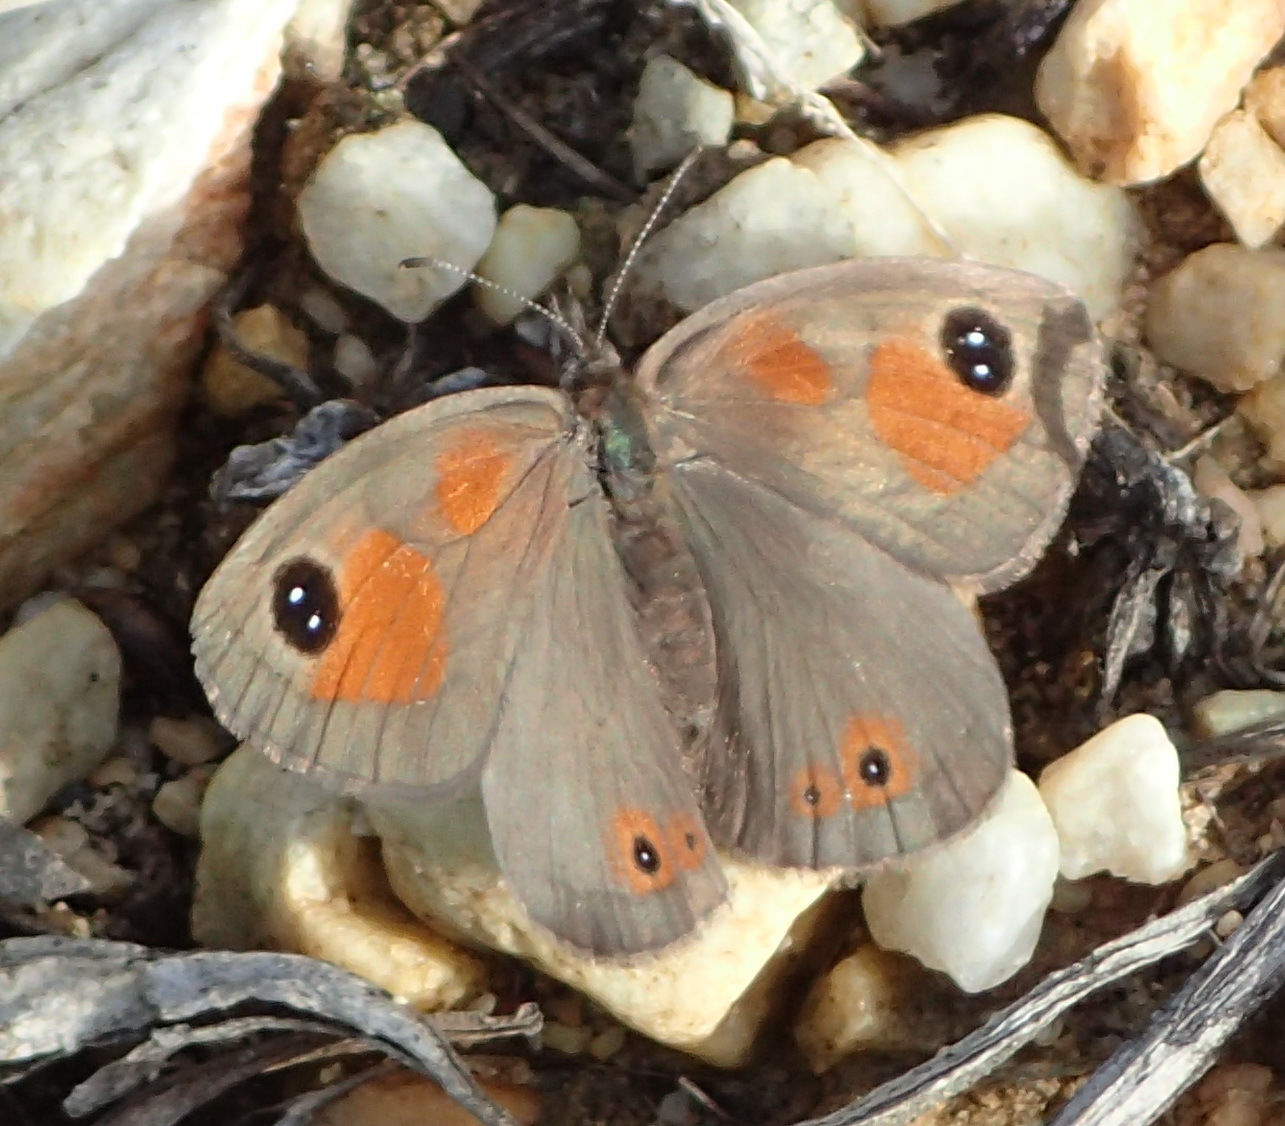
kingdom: Animalia
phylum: Arthropoda
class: Insecta
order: Lepidoptera
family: Nymphalidae
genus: Pseudonympha
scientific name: Pseudonympha magus
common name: Silver-bottom brown
